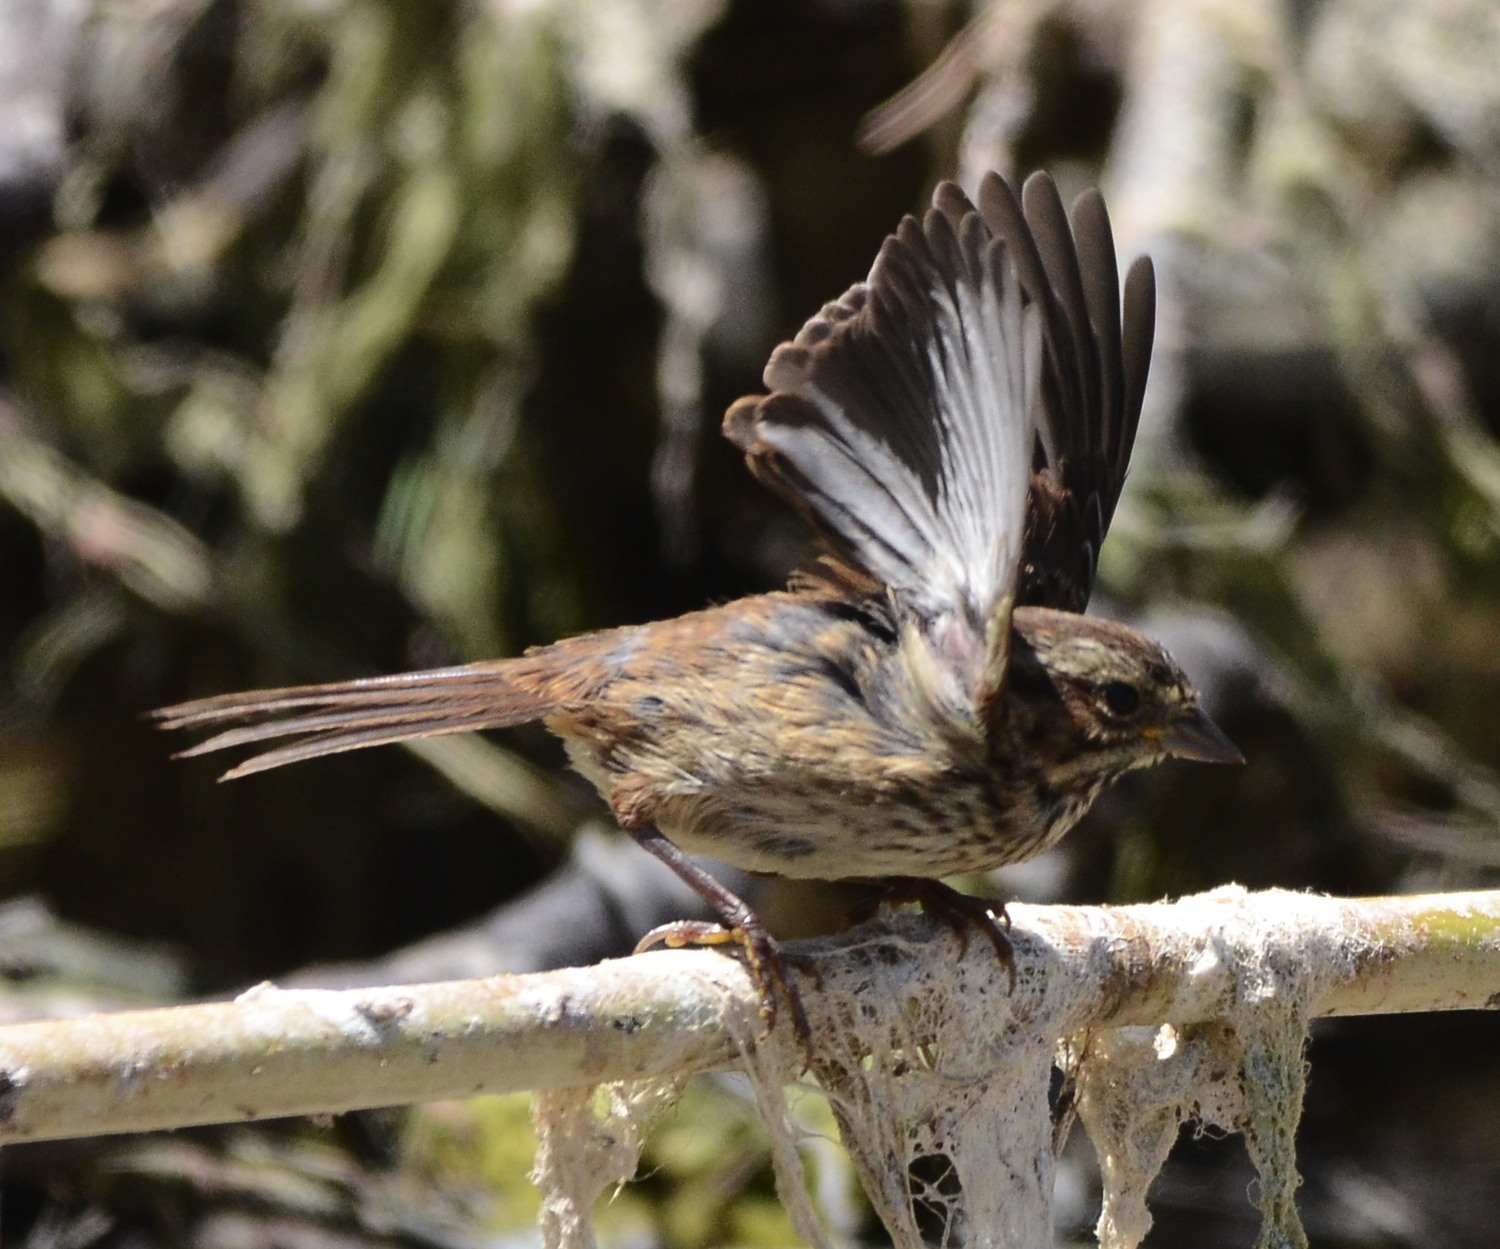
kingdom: Animalia
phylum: Chordata
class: Aves
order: Passeriformes
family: Passerellidae
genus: Melospiza
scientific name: Melospiza melodia
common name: Song sparrow
